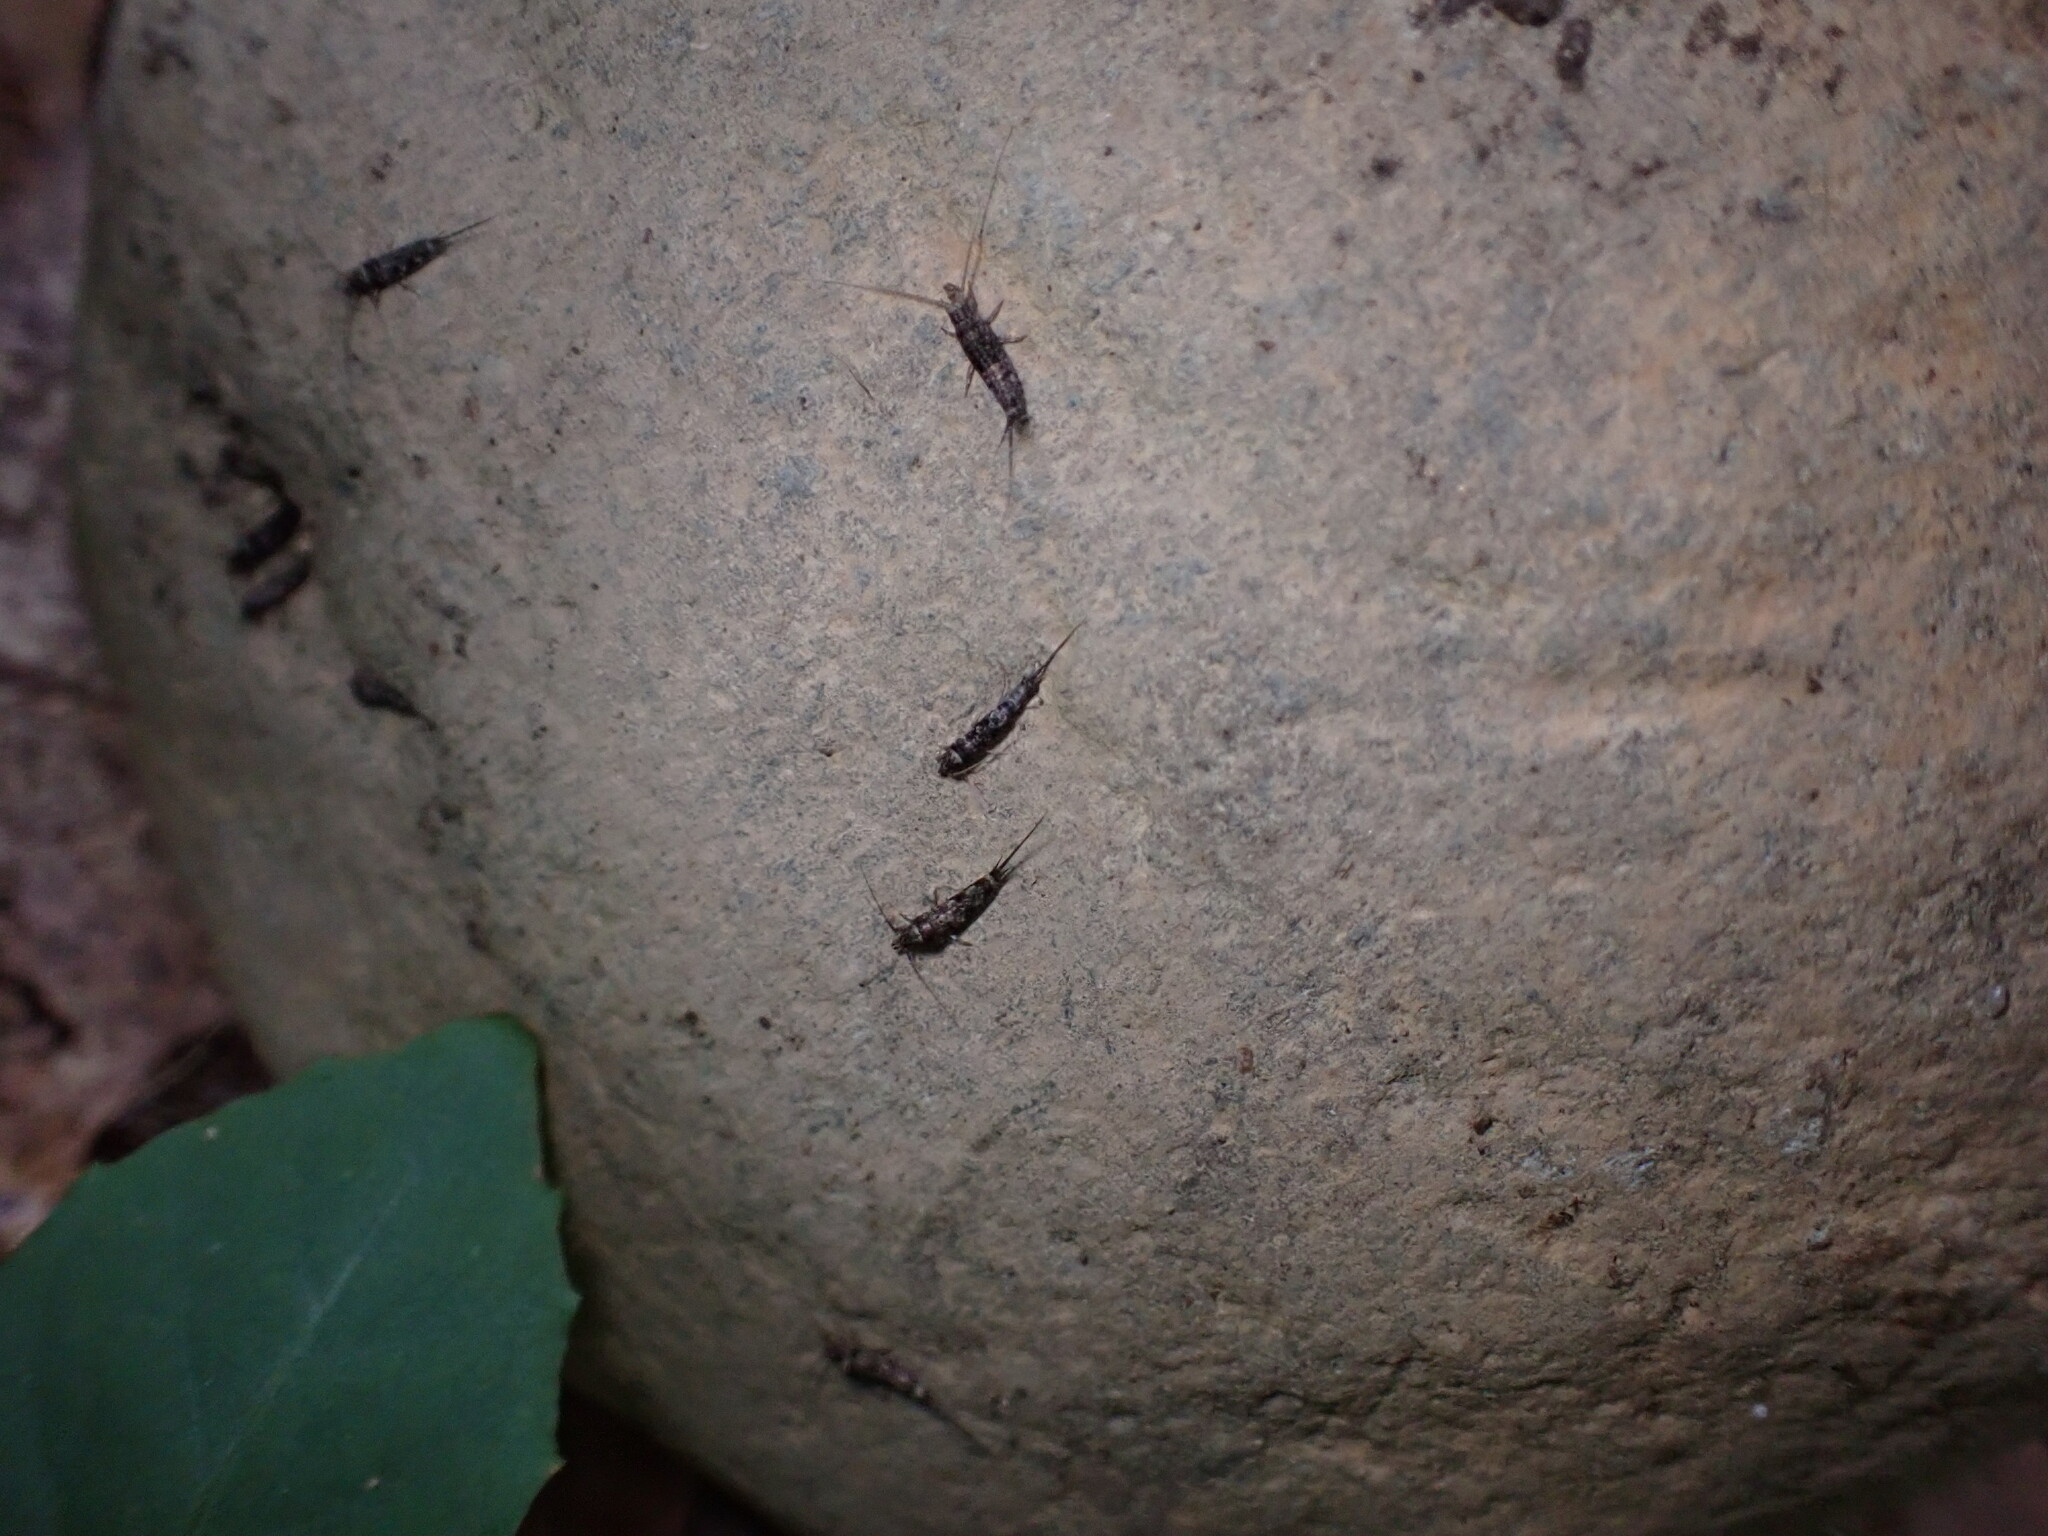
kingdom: Animalia
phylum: Arthropoda
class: Insecta
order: Archaeognatha
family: Machilidae
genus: Trigoniophthalmus
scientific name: Trigoniophthalmus alternatus
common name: Jumping bristletail
